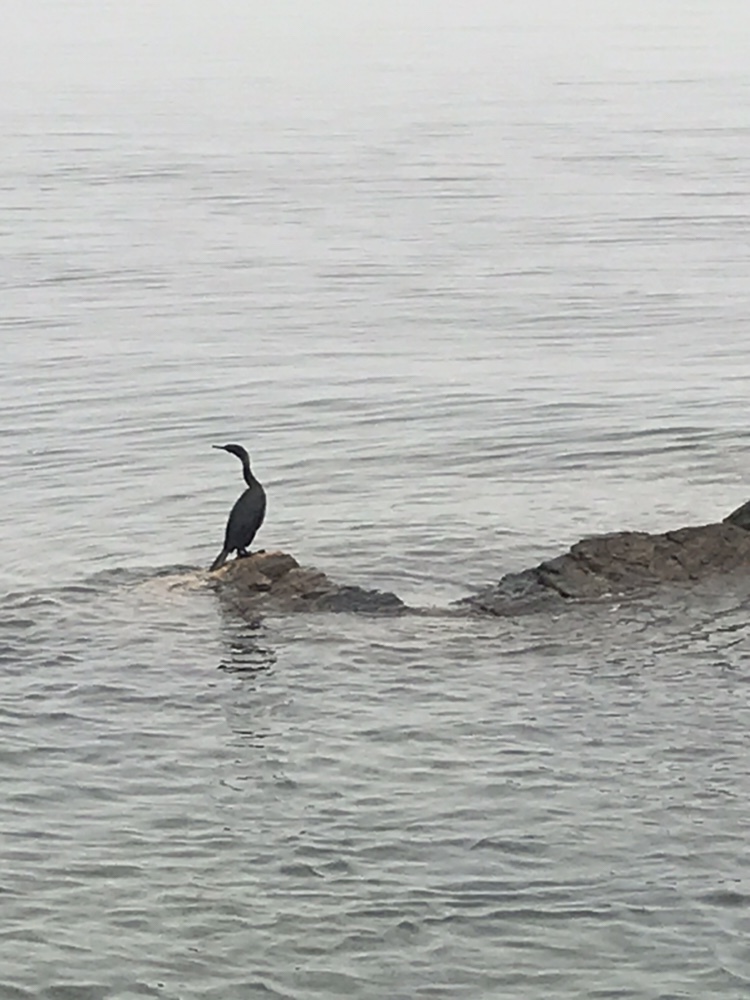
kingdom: Animalia
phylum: Chordata
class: Aves
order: Suliformes
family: Phalacrocoracidae
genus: Phalacrocorax
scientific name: Phalacrocorax pelagicus
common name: Pelagic cormorant
